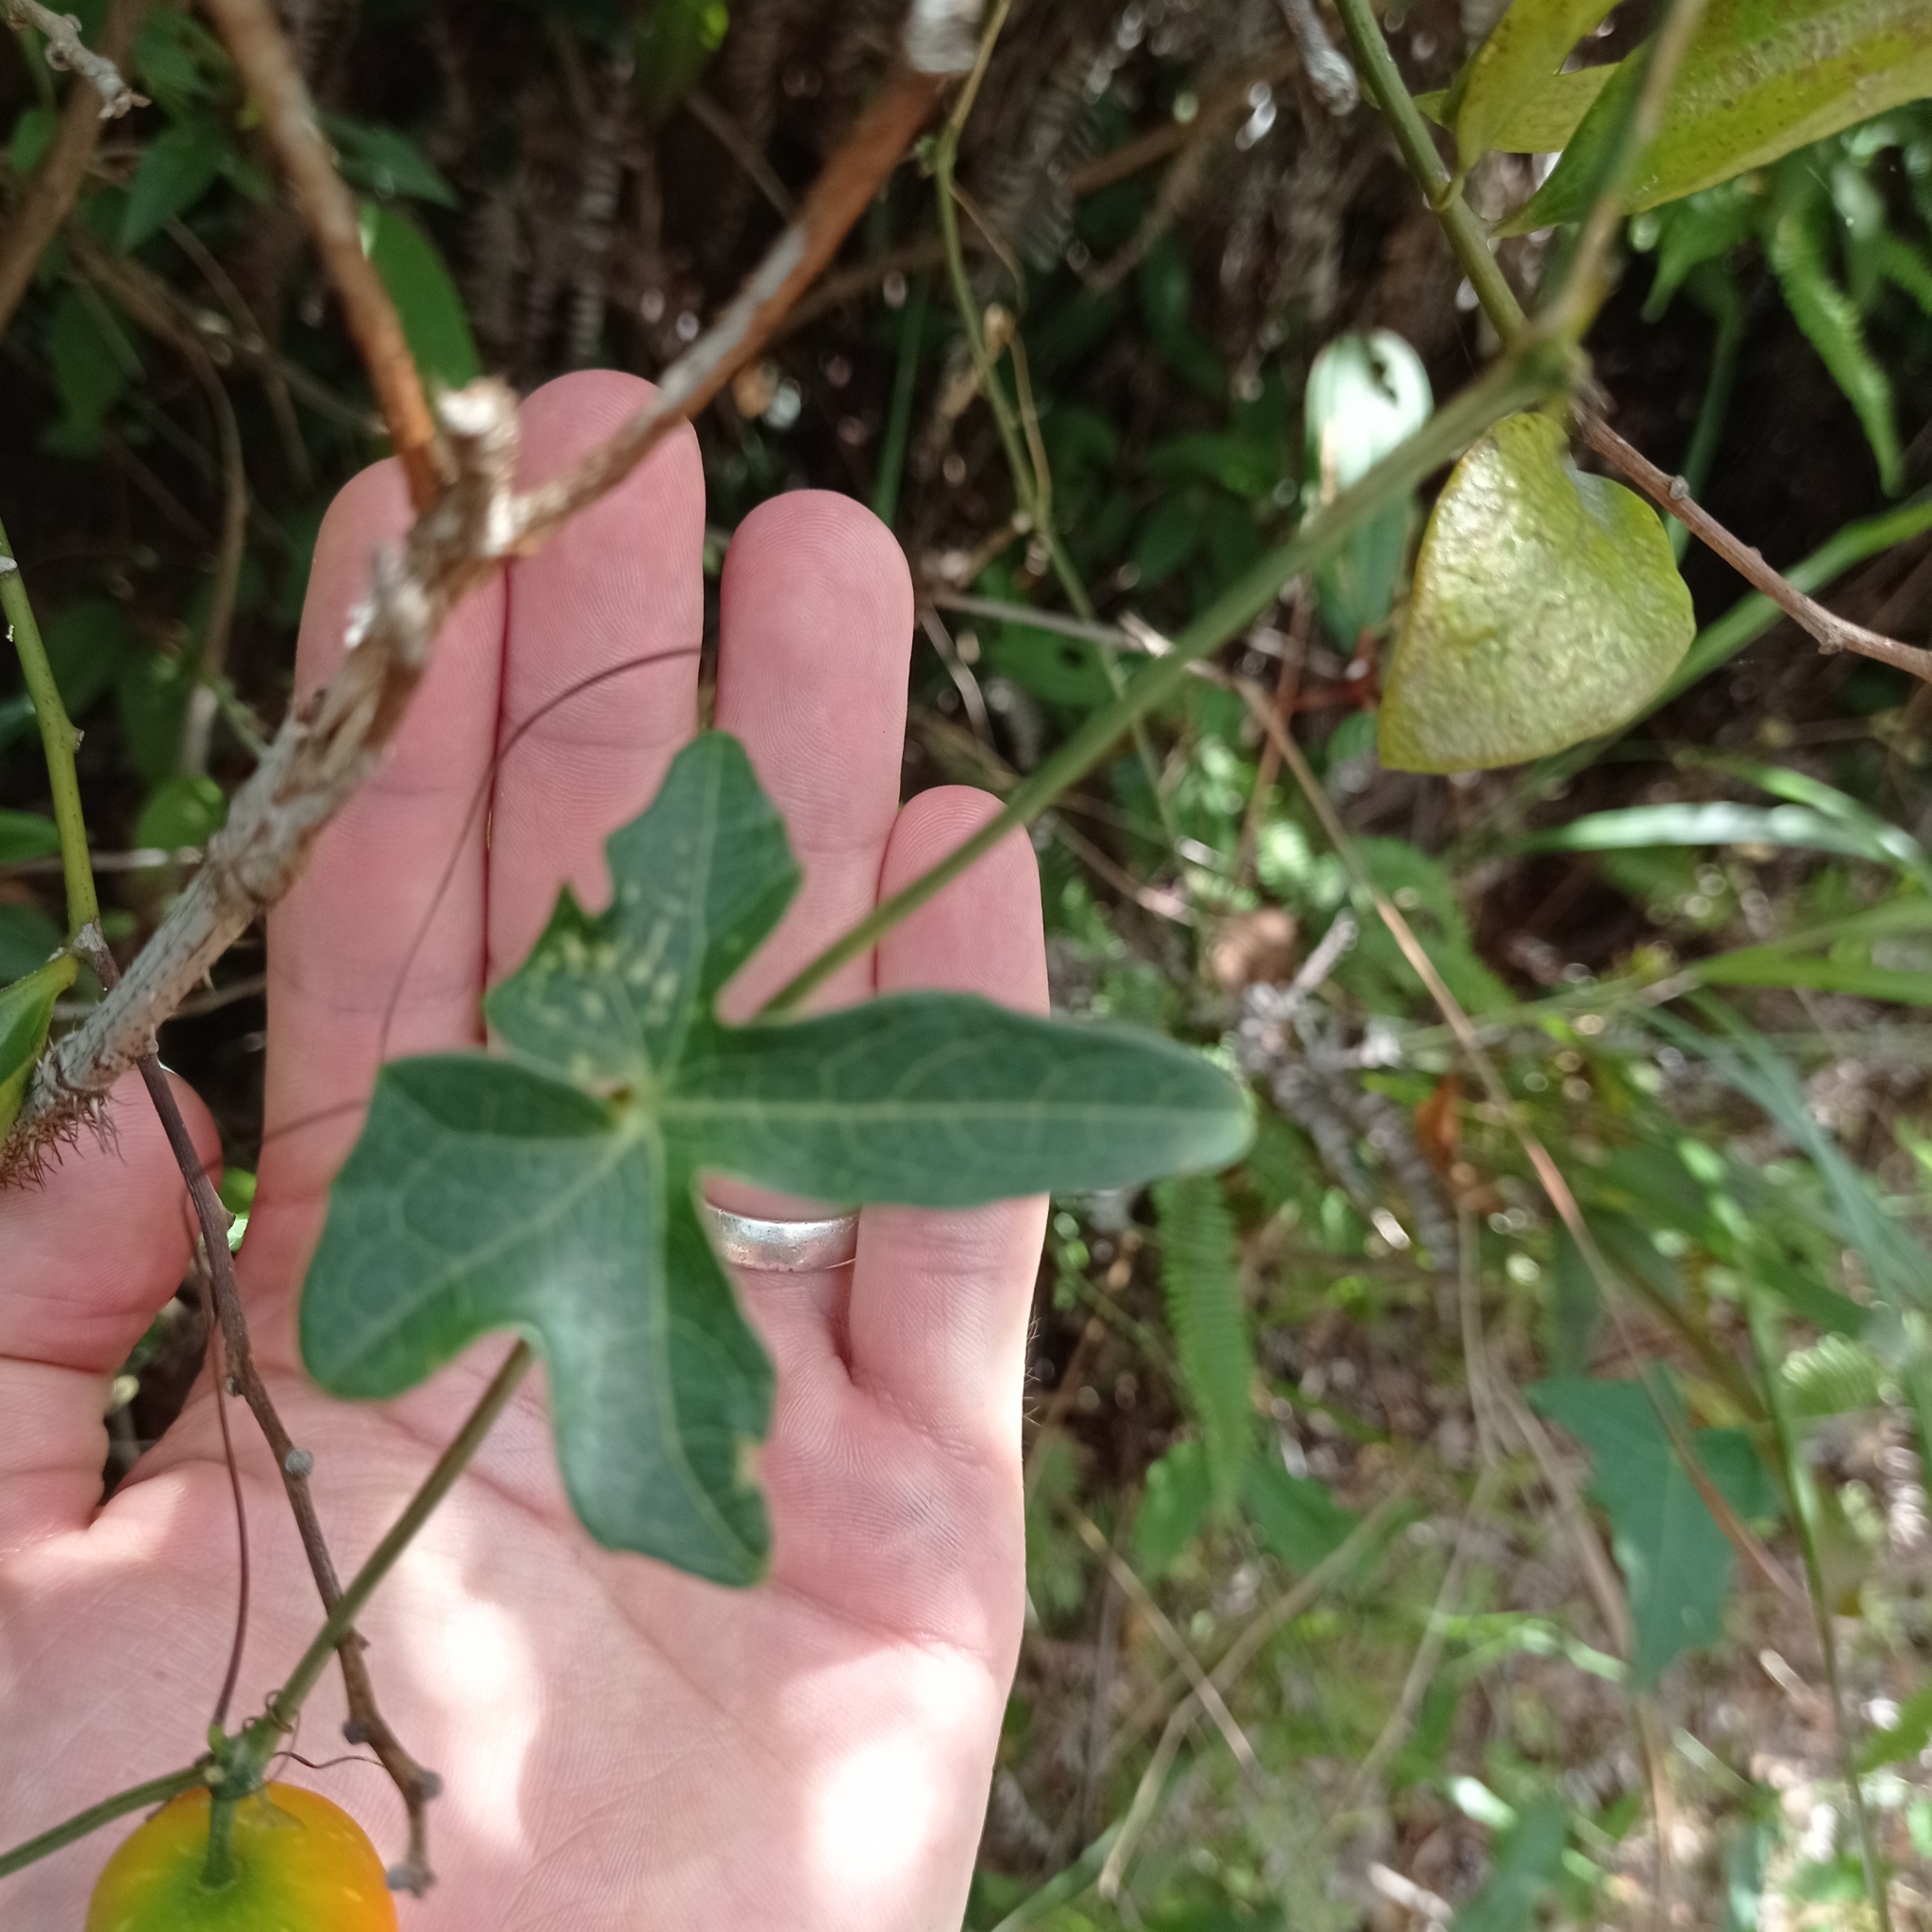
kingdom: Plantae
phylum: Tracheophyta
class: Magnoliopsida
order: Cucurbitales
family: Cucurbitaceae
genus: Coccinia
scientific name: Coccinia grandis
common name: Ivy gourd
